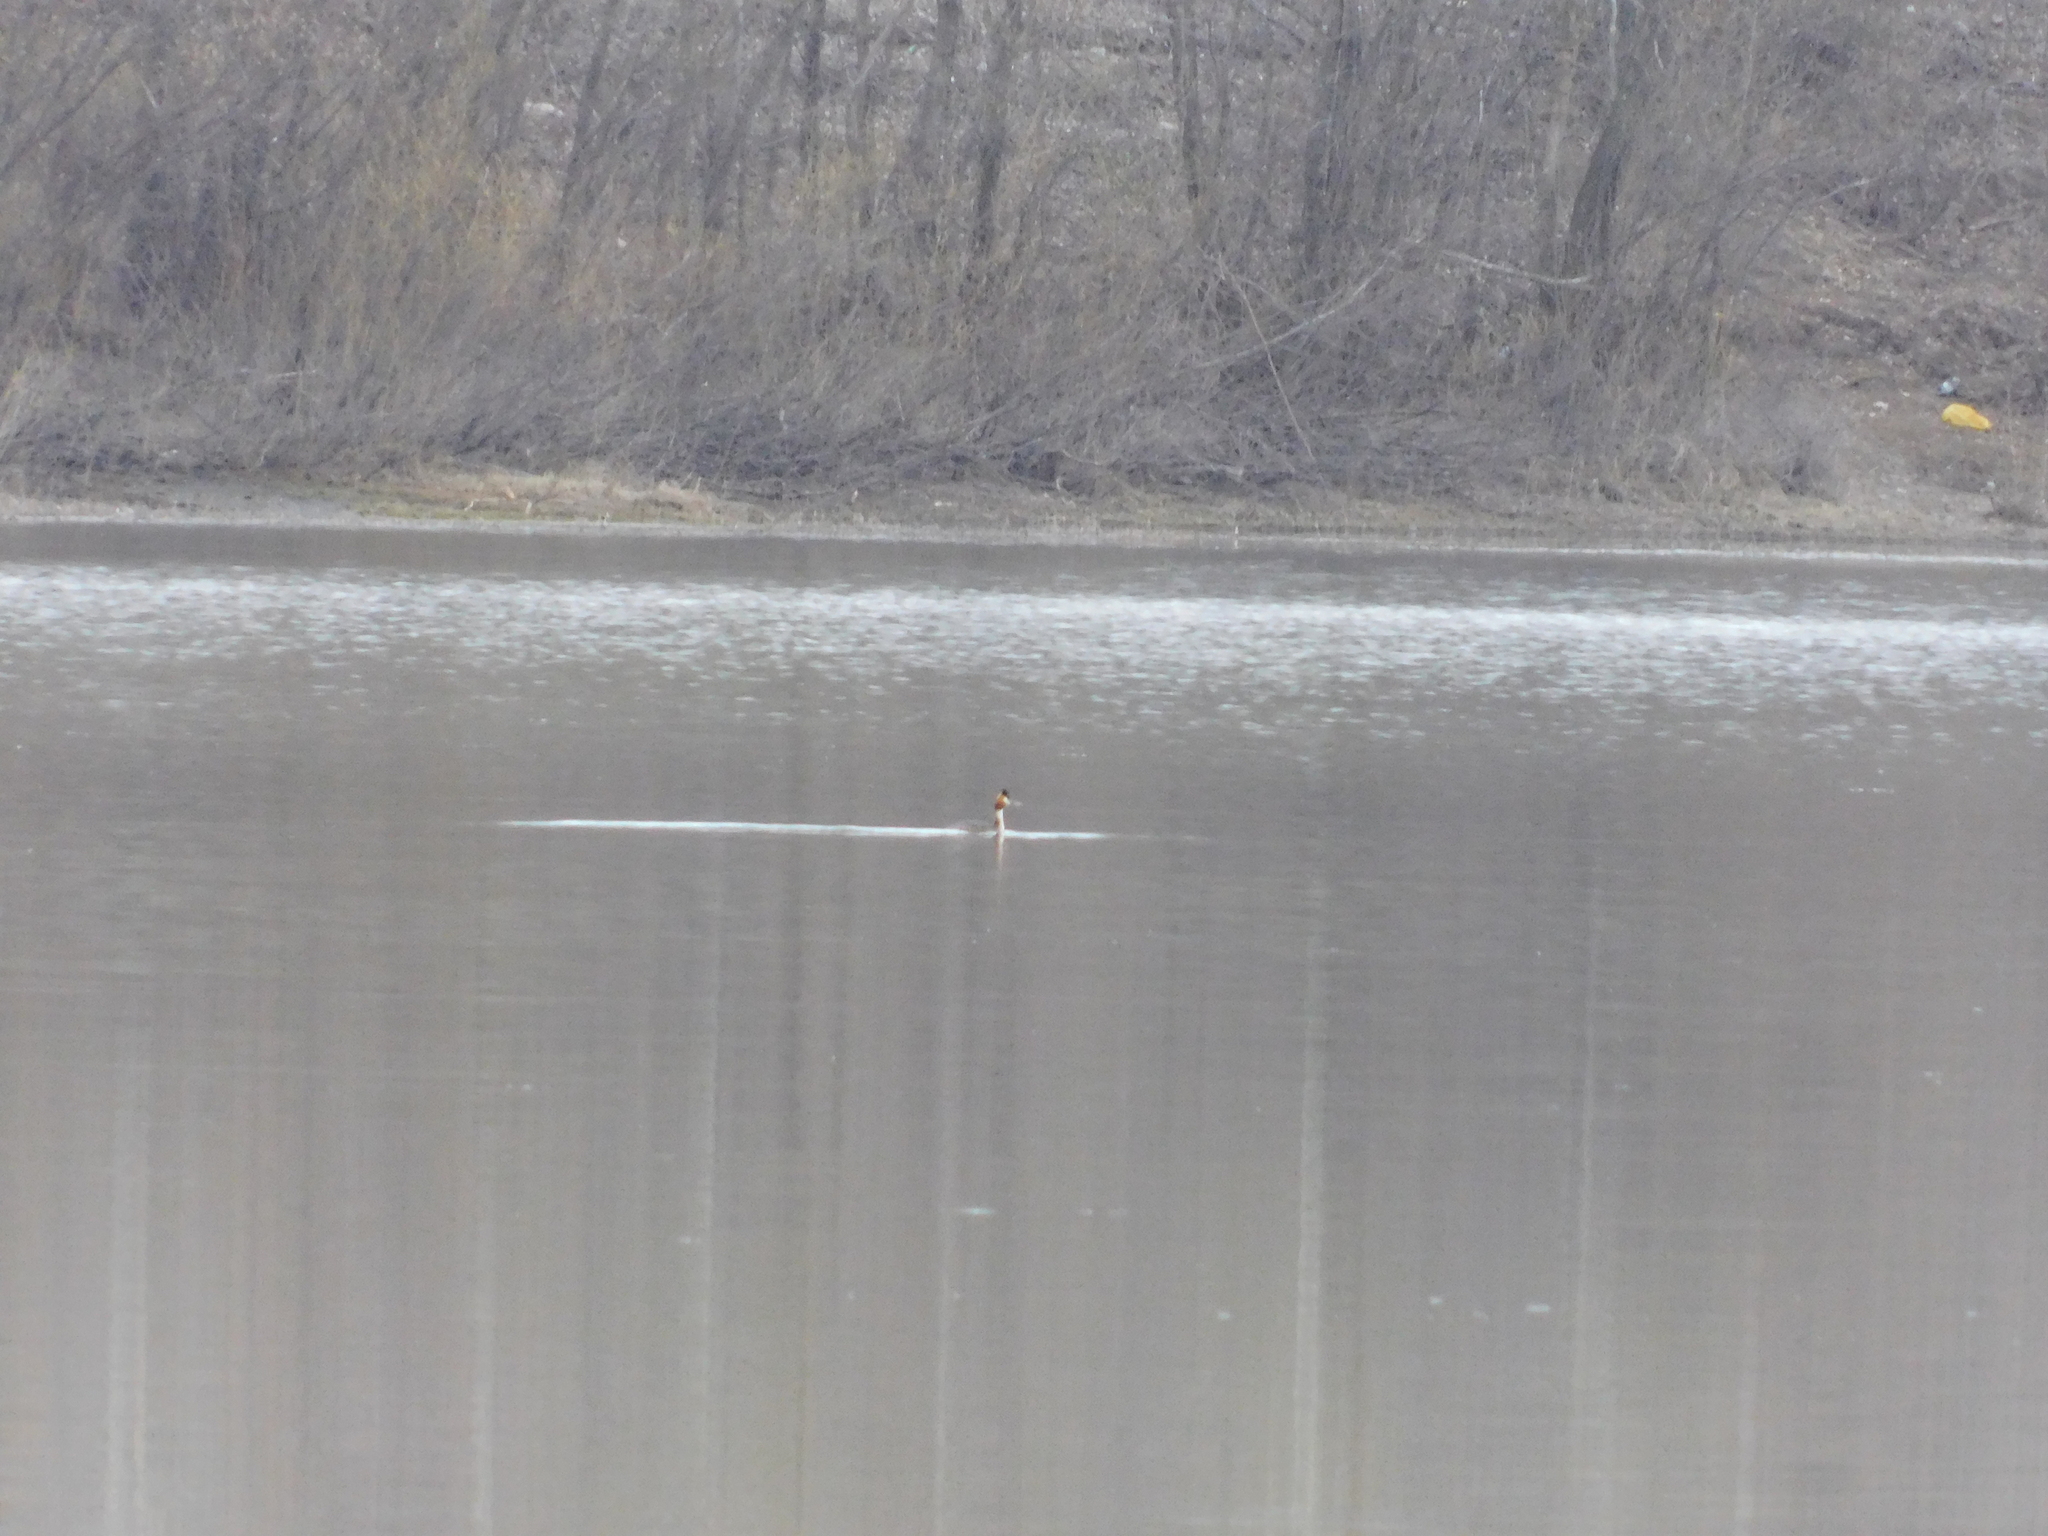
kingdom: Animalia
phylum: Chordata
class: Aves
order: Podicipediformes
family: Podicipedidae
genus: Podiceps
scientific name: Podiceps cristatus
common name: Great crested grebe
